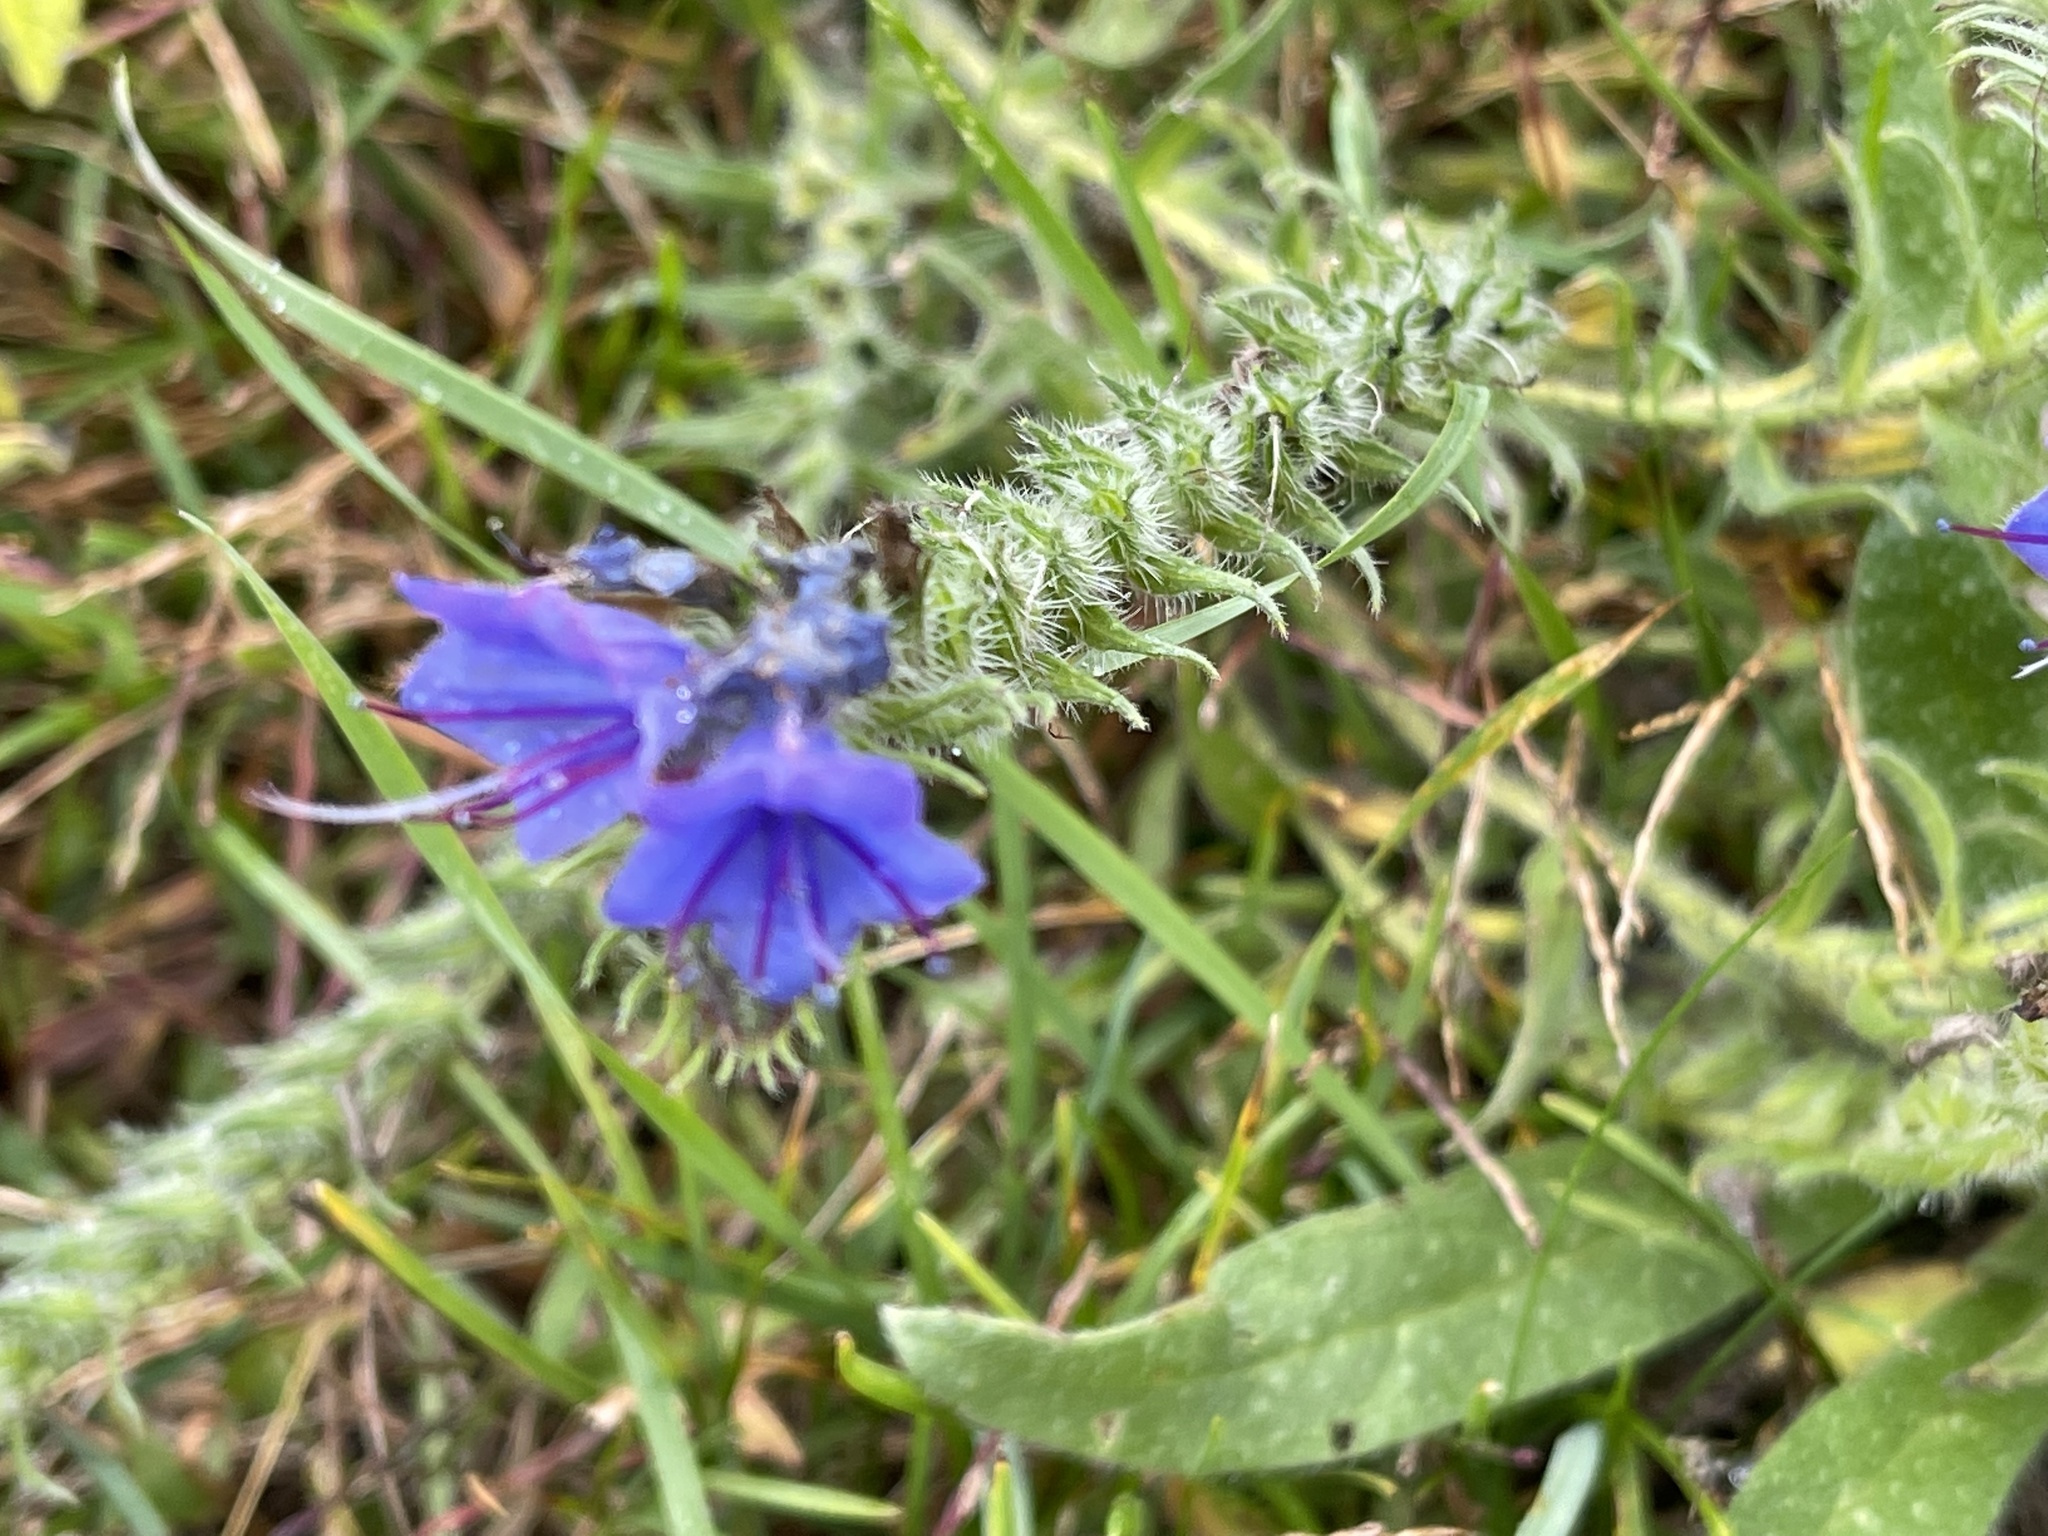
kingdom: Plantae
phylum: Tracheophyta
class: Magnoliopsida
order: Boraginales
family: Boraginaceae
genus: Echium
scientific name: Echium vulgare
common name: Common viper's bugloss
